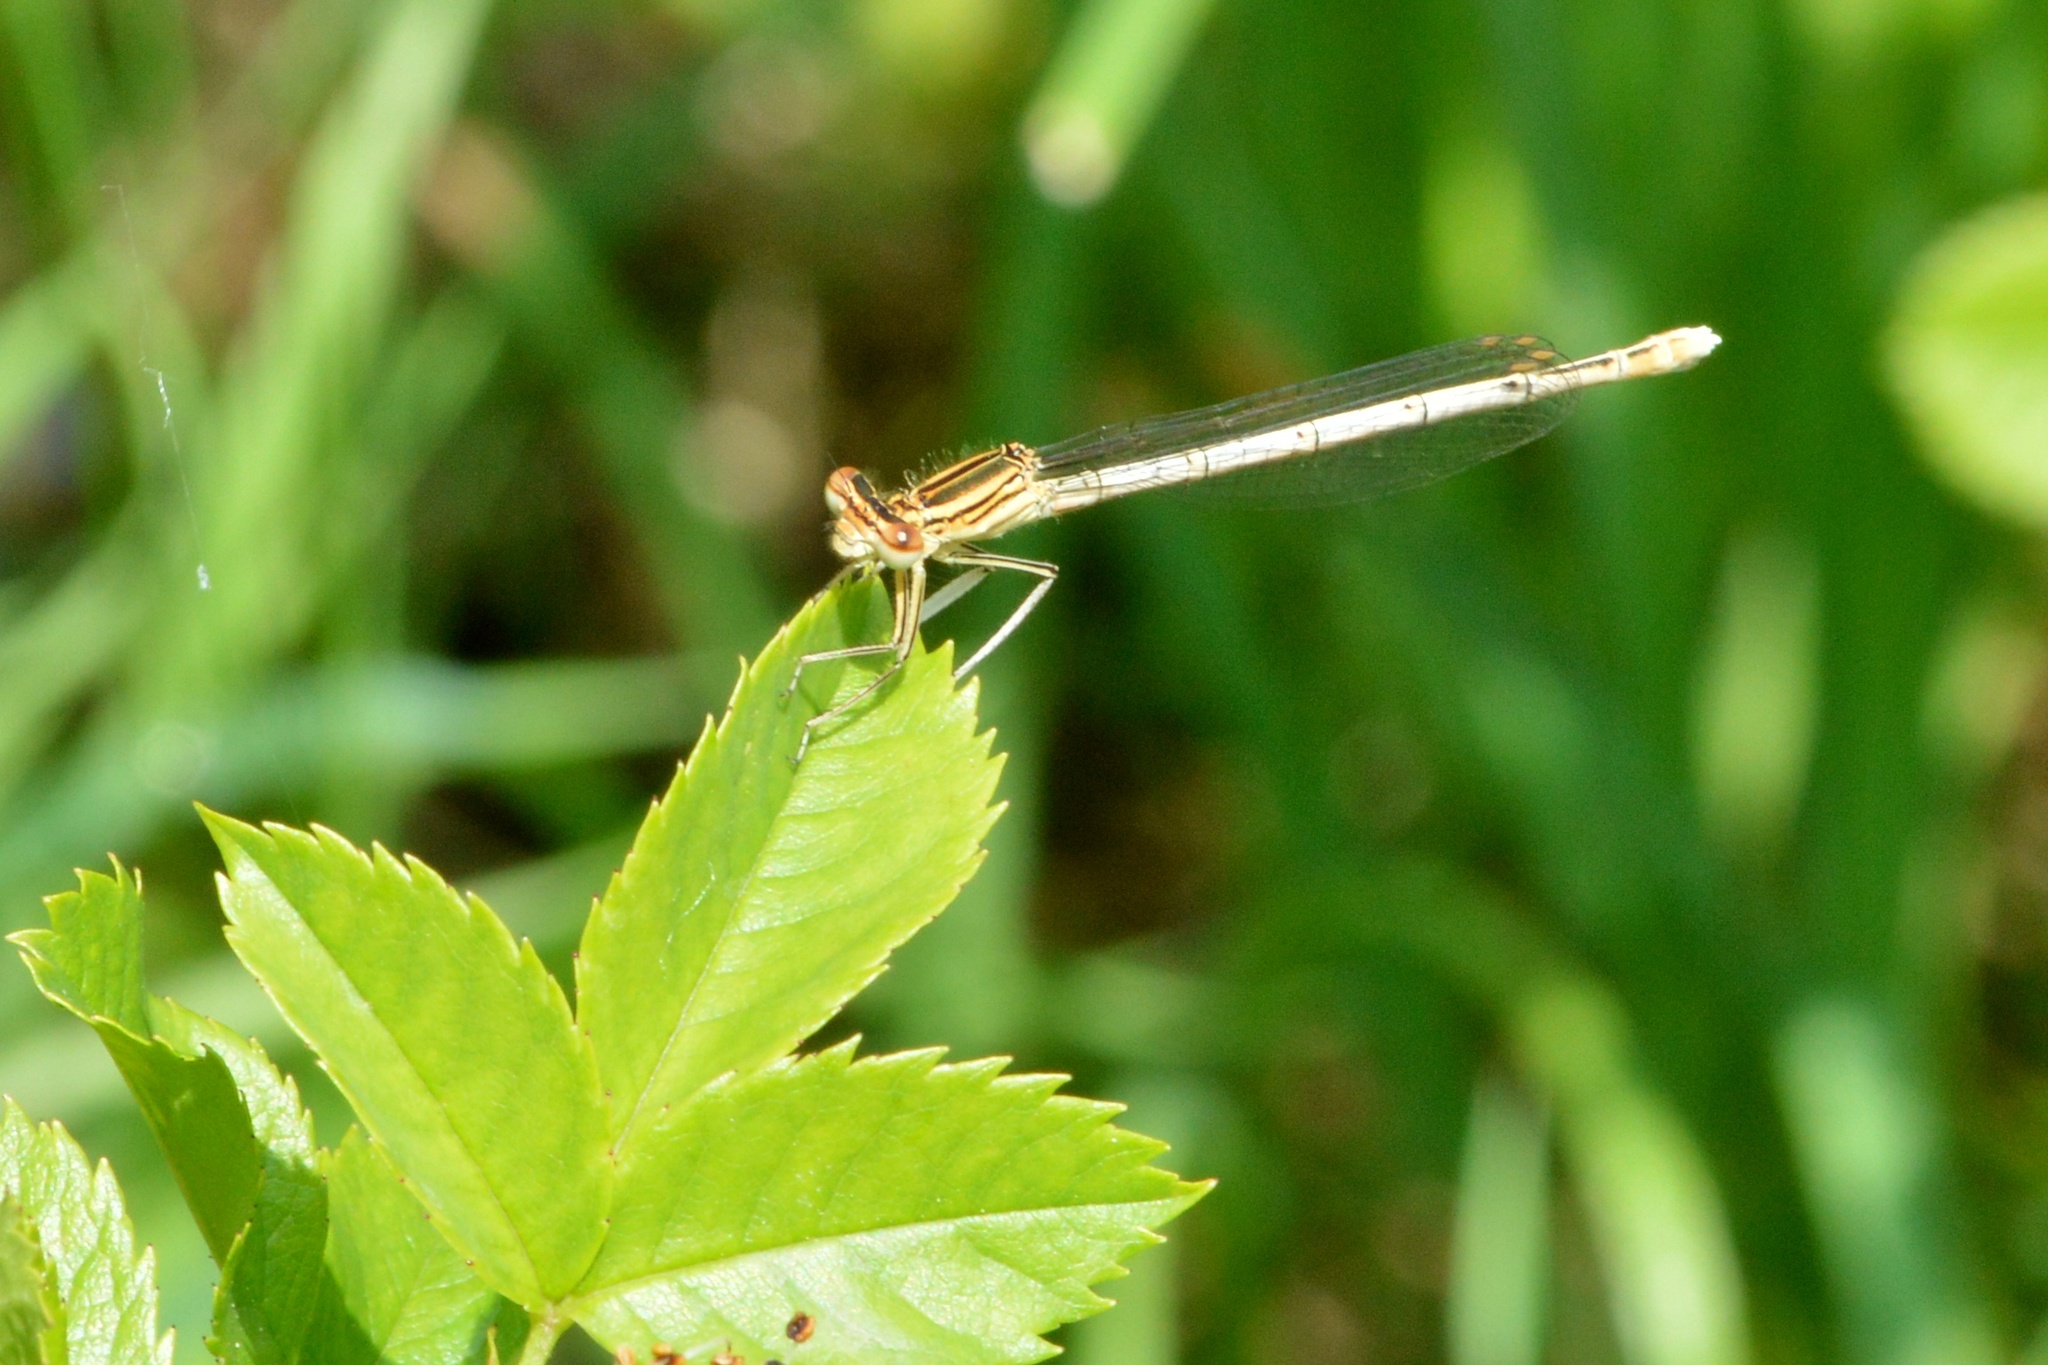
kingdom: Animalia
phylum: Arthropoda
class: Insecta
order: Odonata
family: Platycnemididae
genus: Platycnemis
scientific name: Platycnemis pennipes
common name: White-legged damselfly
